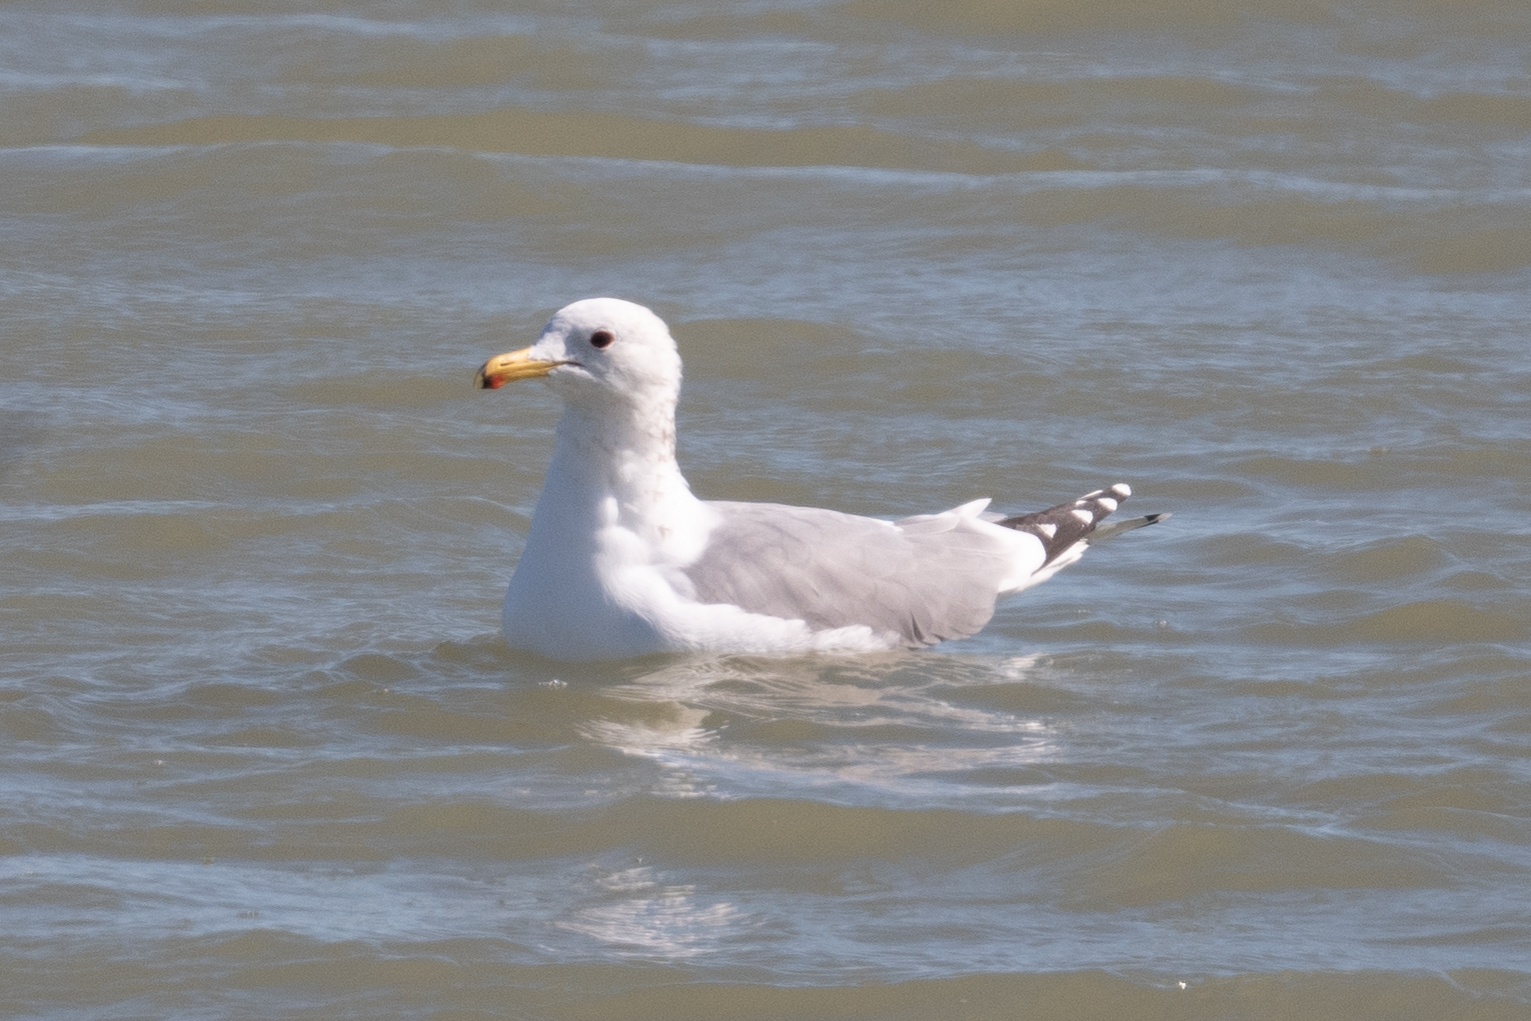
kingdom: Animalia
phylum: Chordata
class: Aves
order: Charadriiformes
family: Laridae
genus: Larus
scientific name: Larus californicus
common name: California gull
